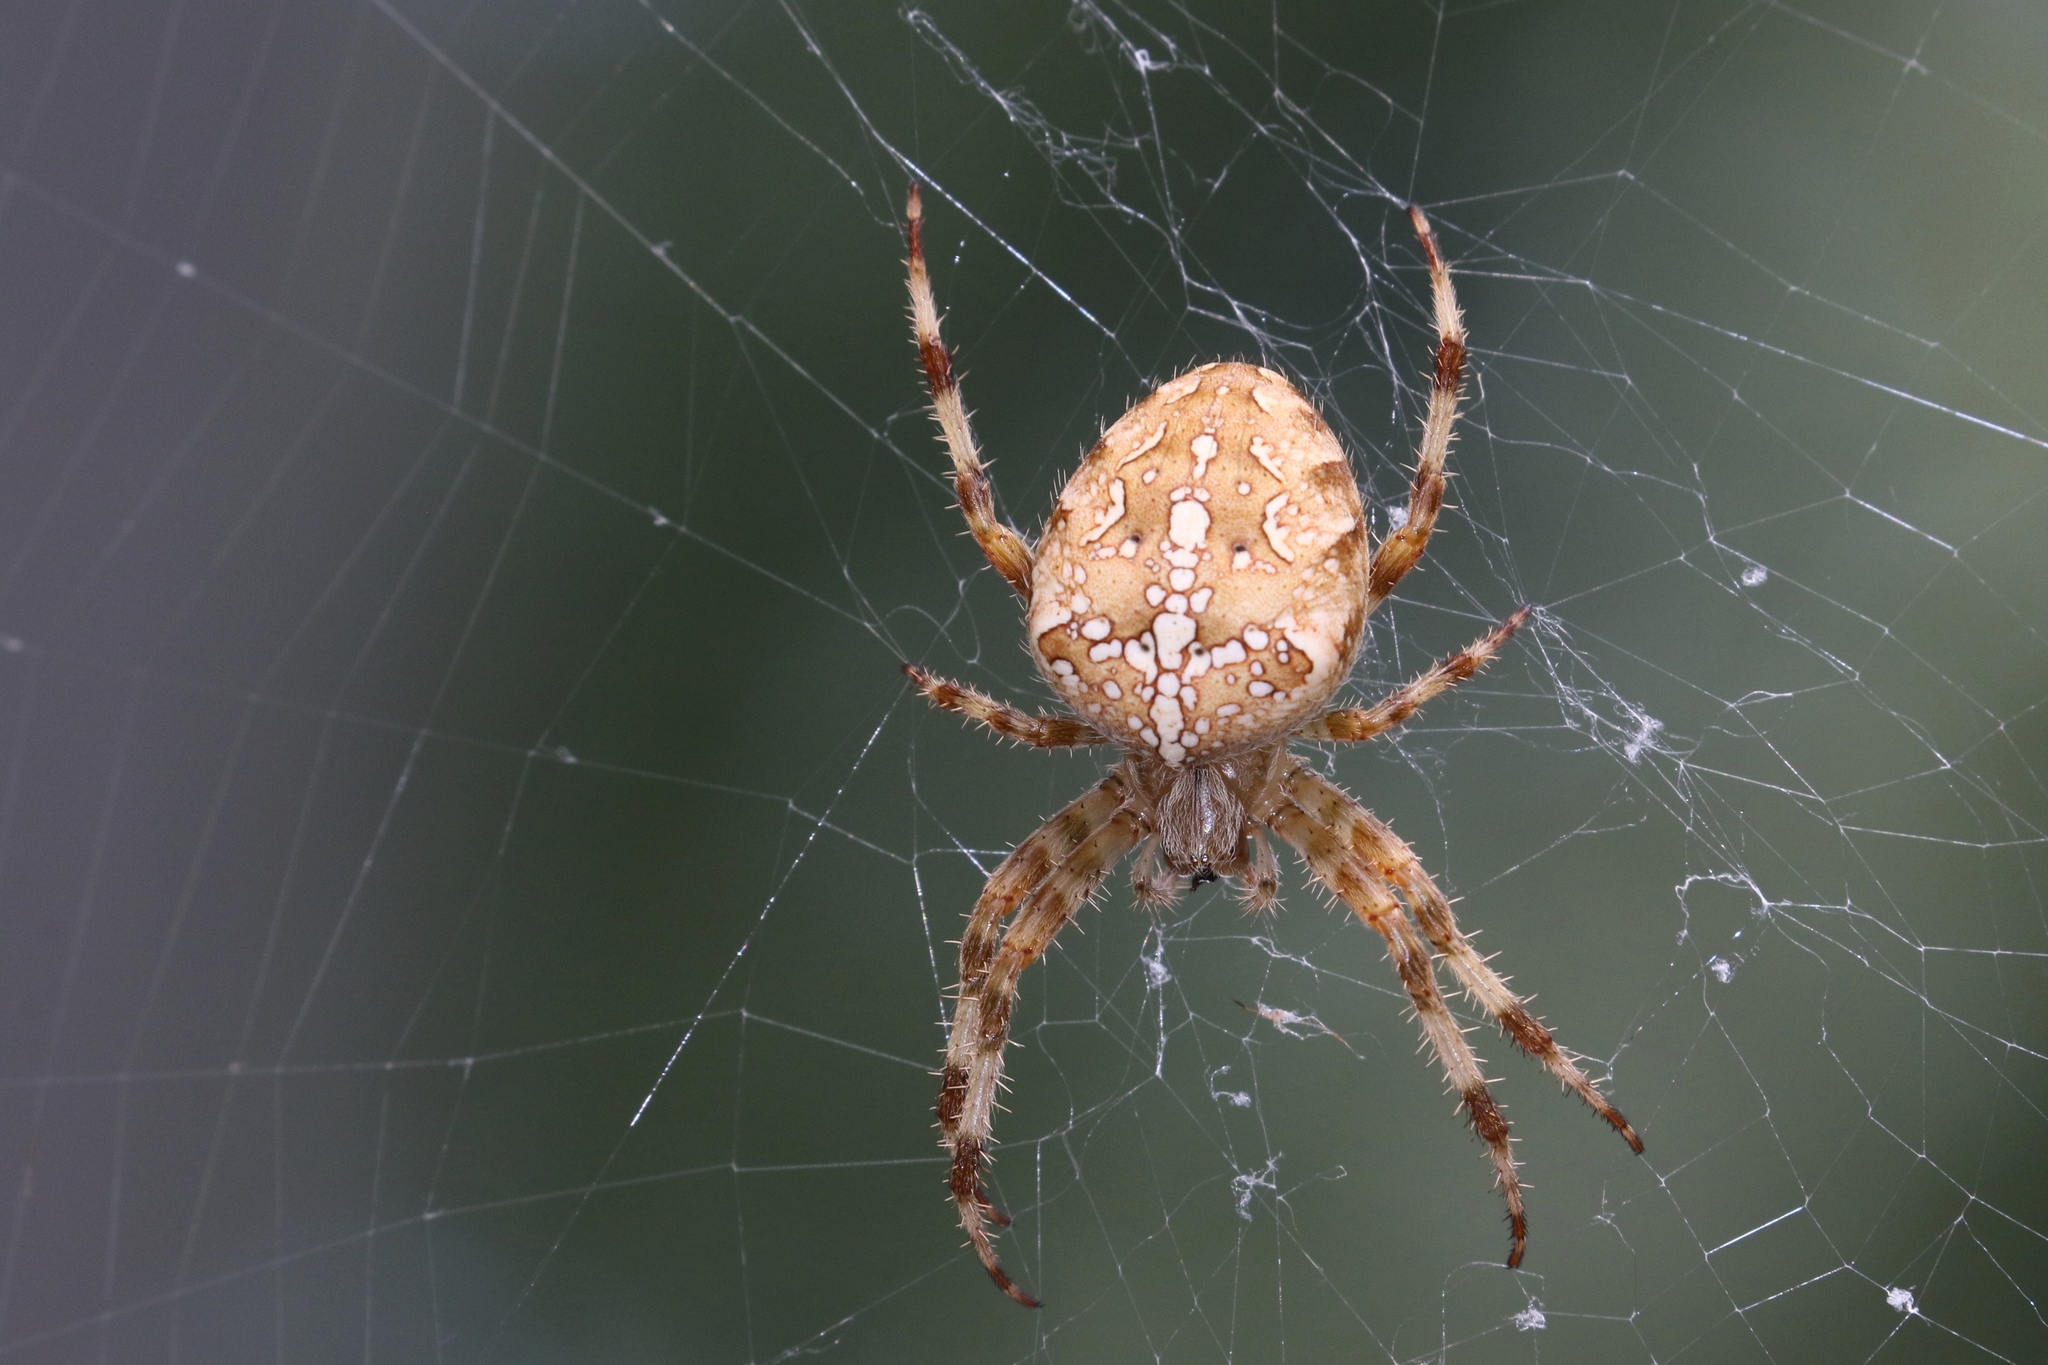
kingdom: Animalia
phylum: Arthropoda
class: Arachnida
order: Araneae
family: Araneidae
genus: Araneus
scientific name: Araneus diadematus
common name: Cross orbweaver
